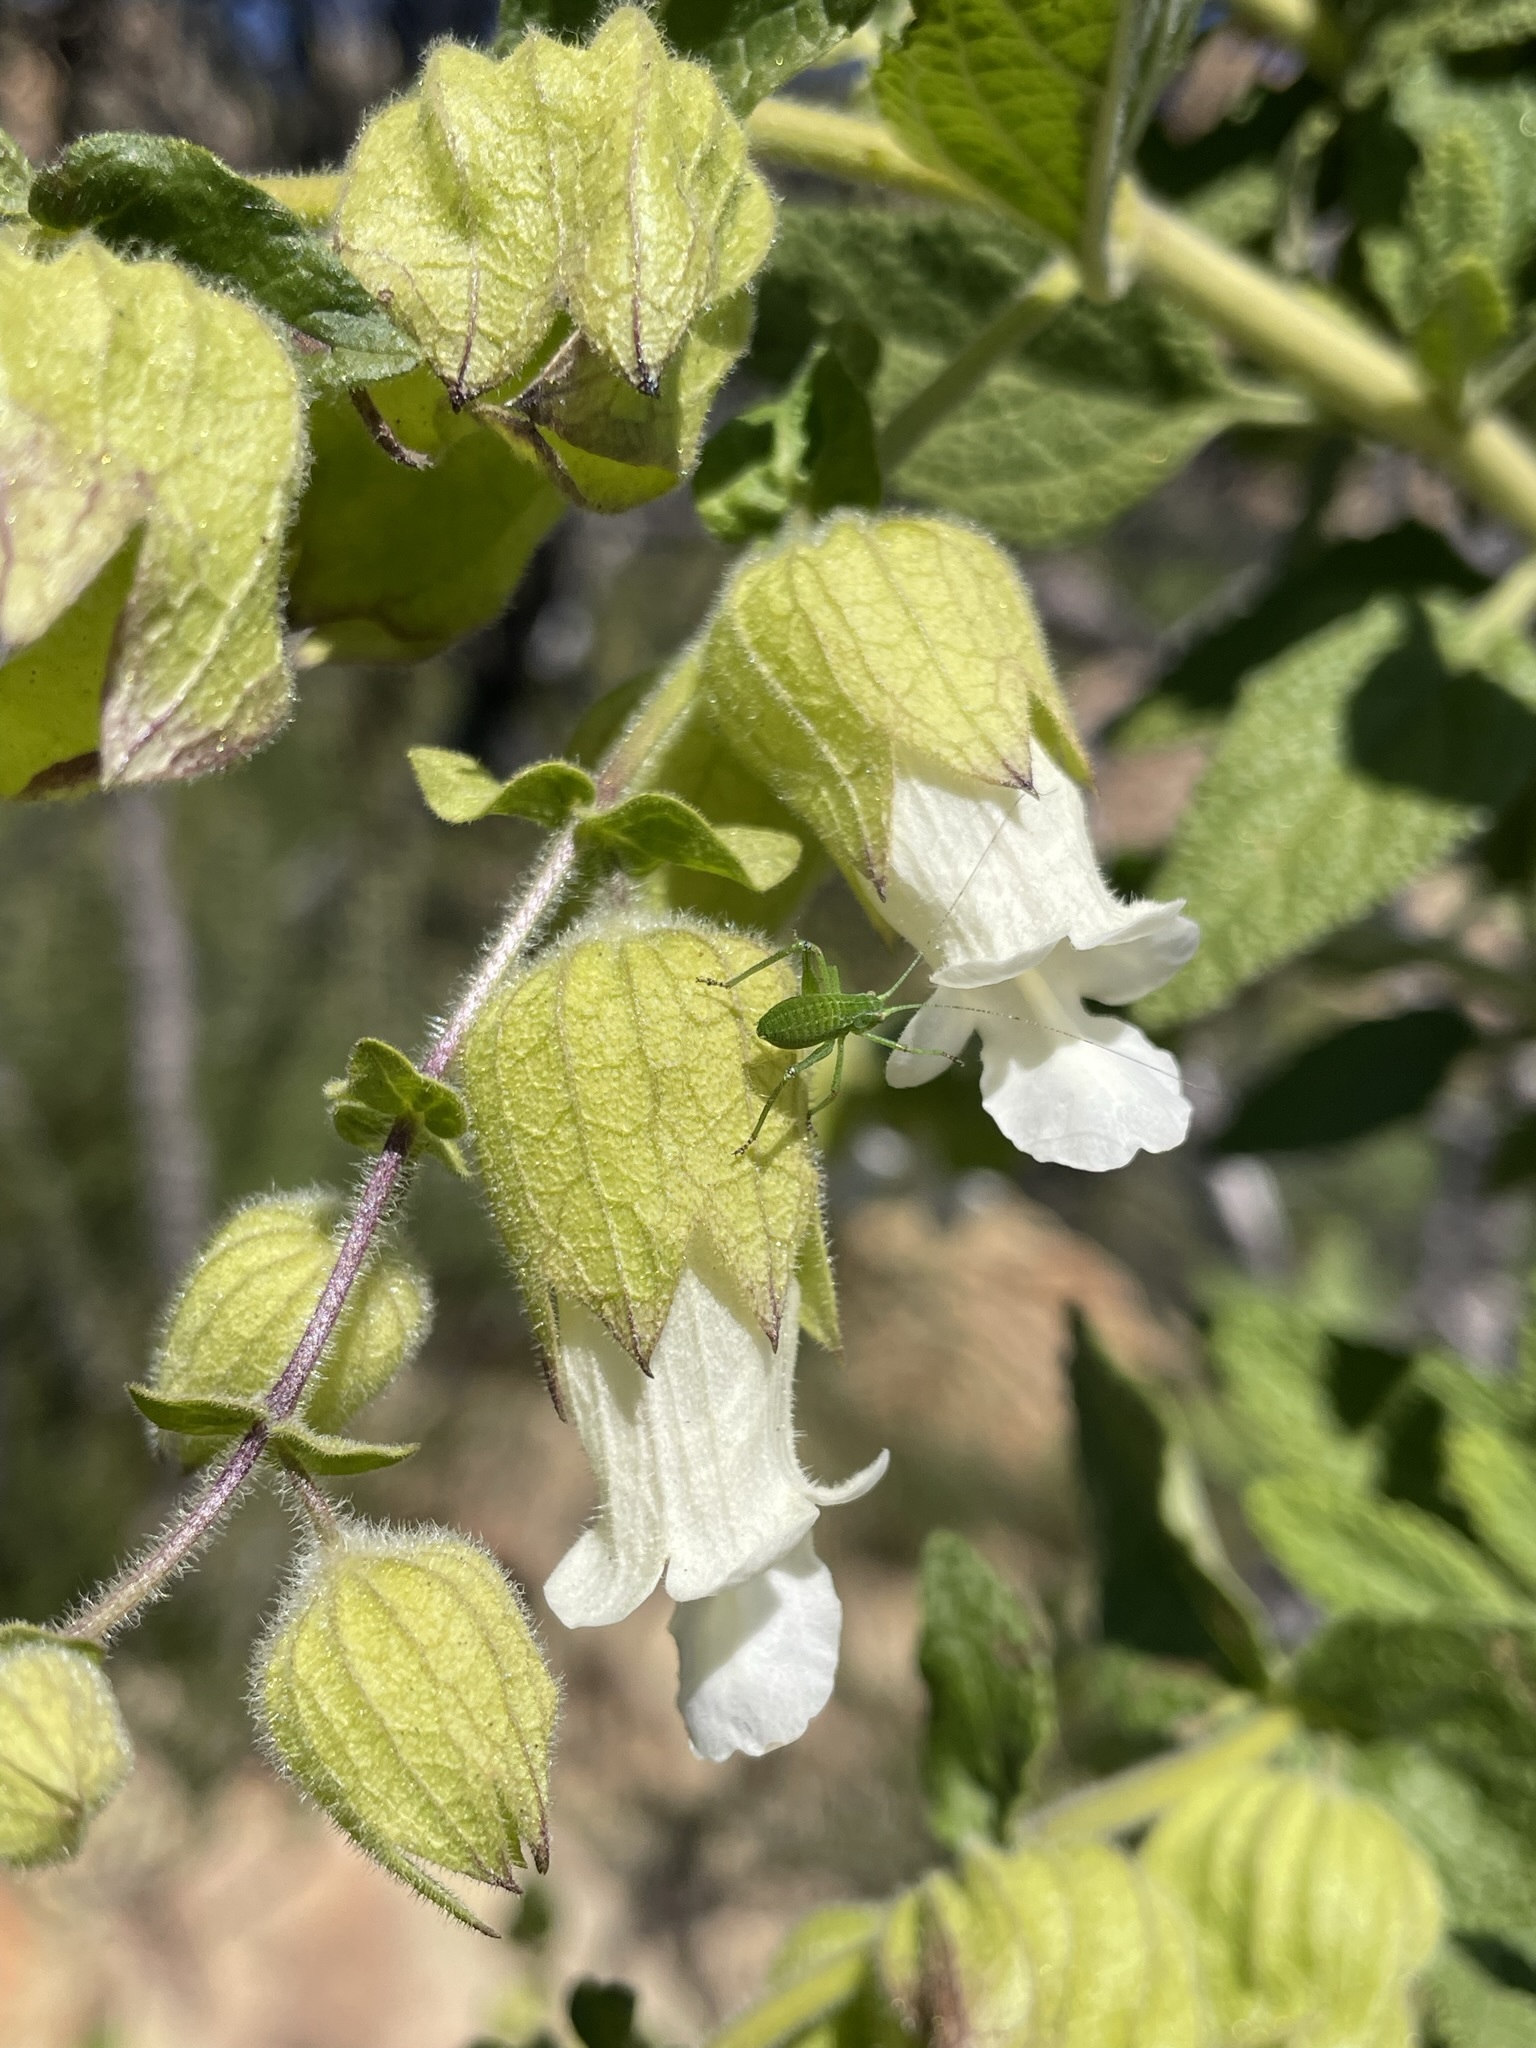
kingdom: Plantae
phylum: Tracheophyta
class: Magnoliopsida
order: Lamiales
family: Lamiaceae
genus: Lepechinia
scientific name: Lepechinia calycina
